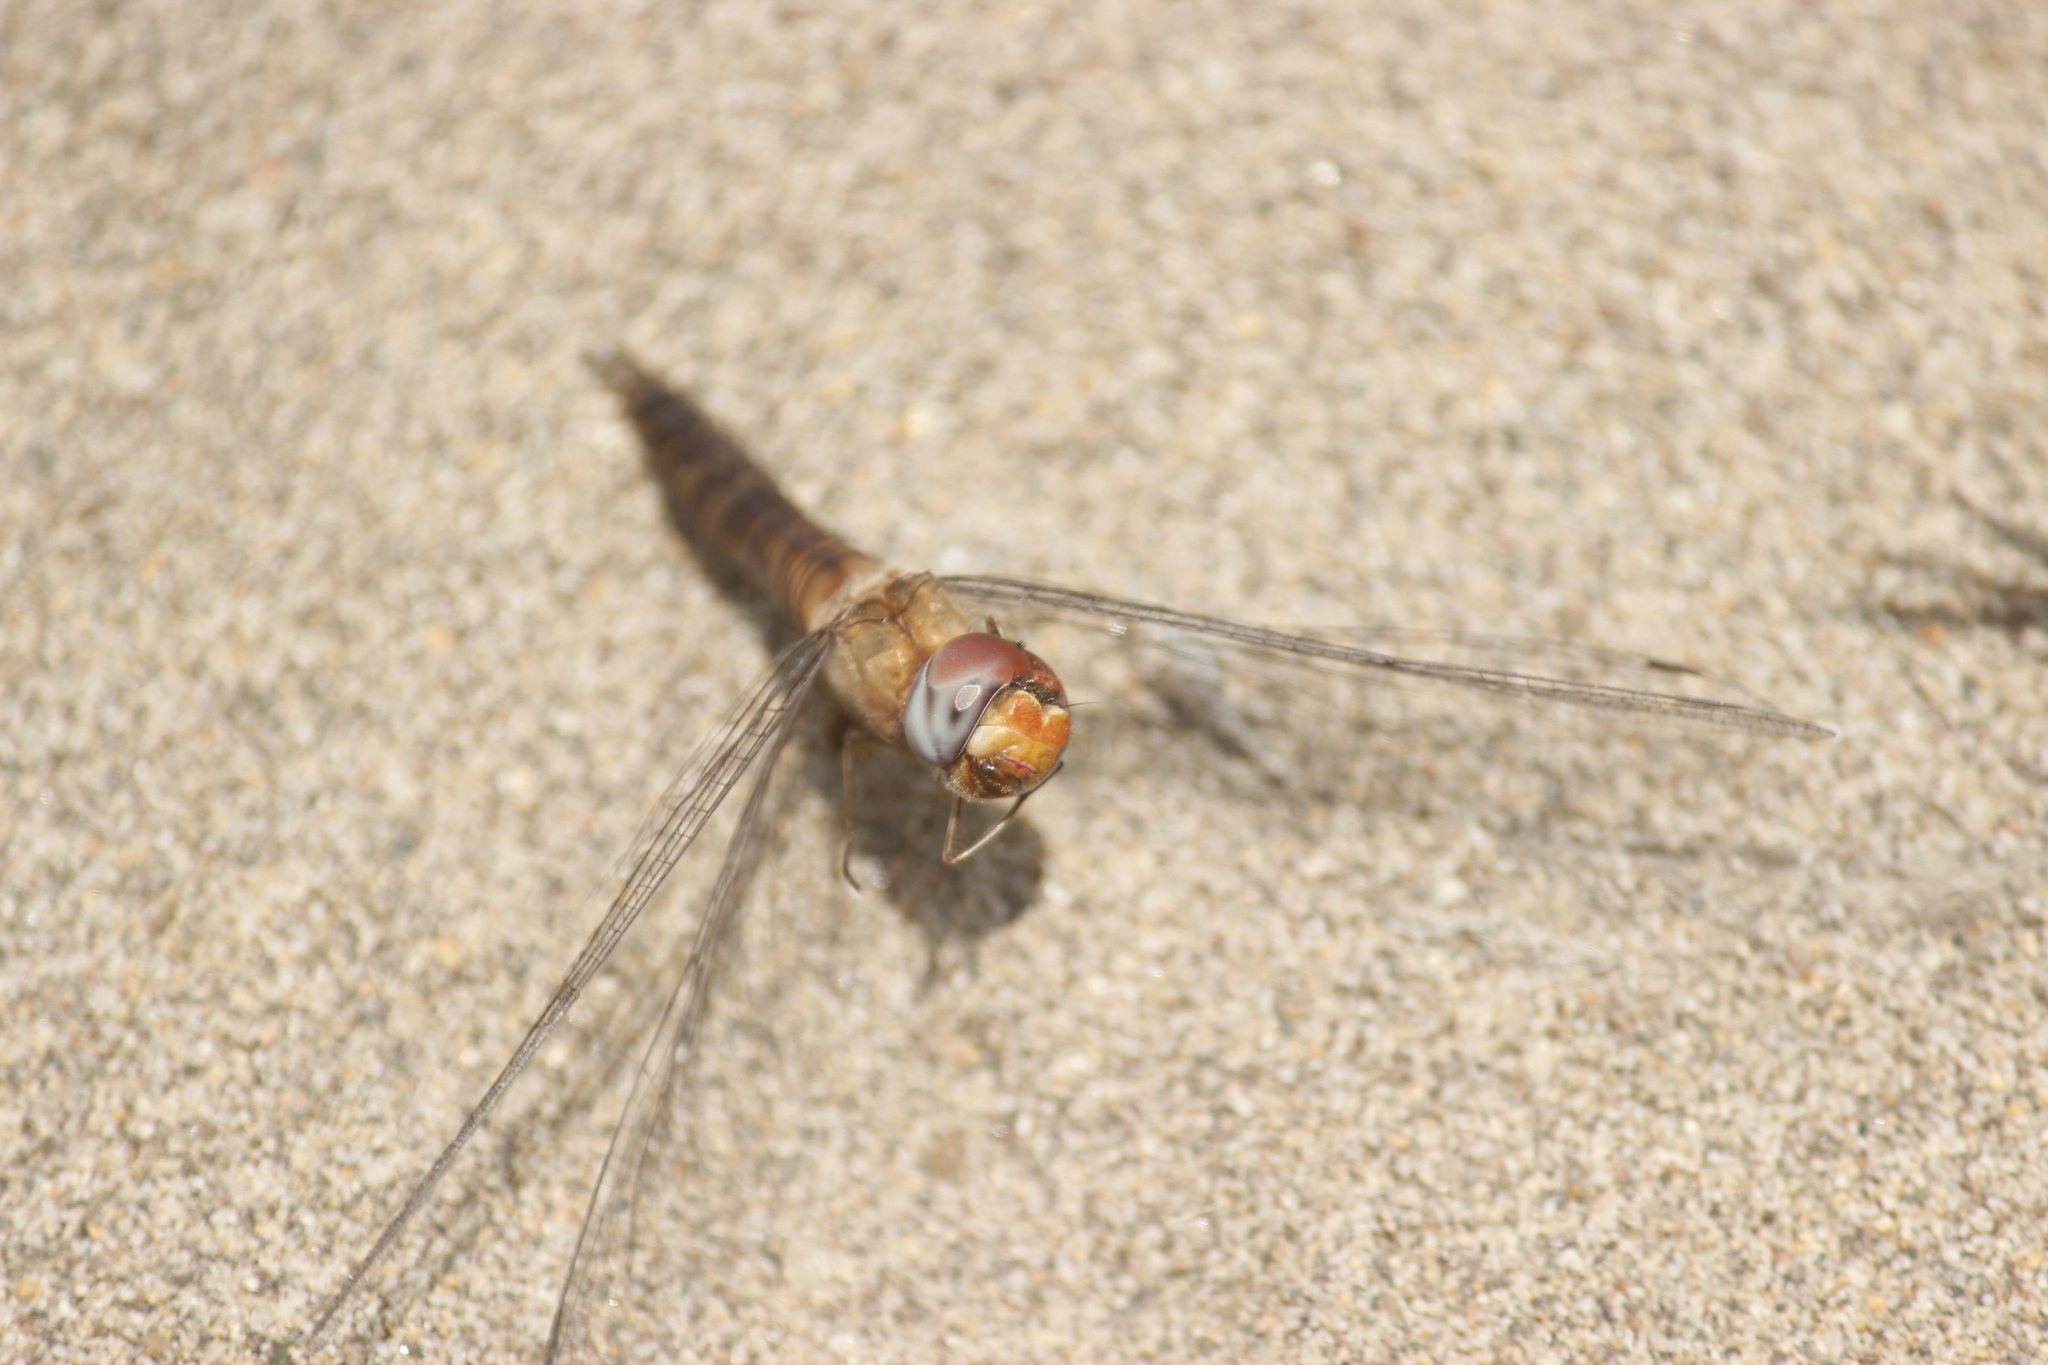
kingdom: Animalia
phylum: Arthropoda
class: Insecta
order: Odonata
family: Libellulidae
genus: Pantala
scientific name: Pantala hymenaea
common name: Spot-winged glider
